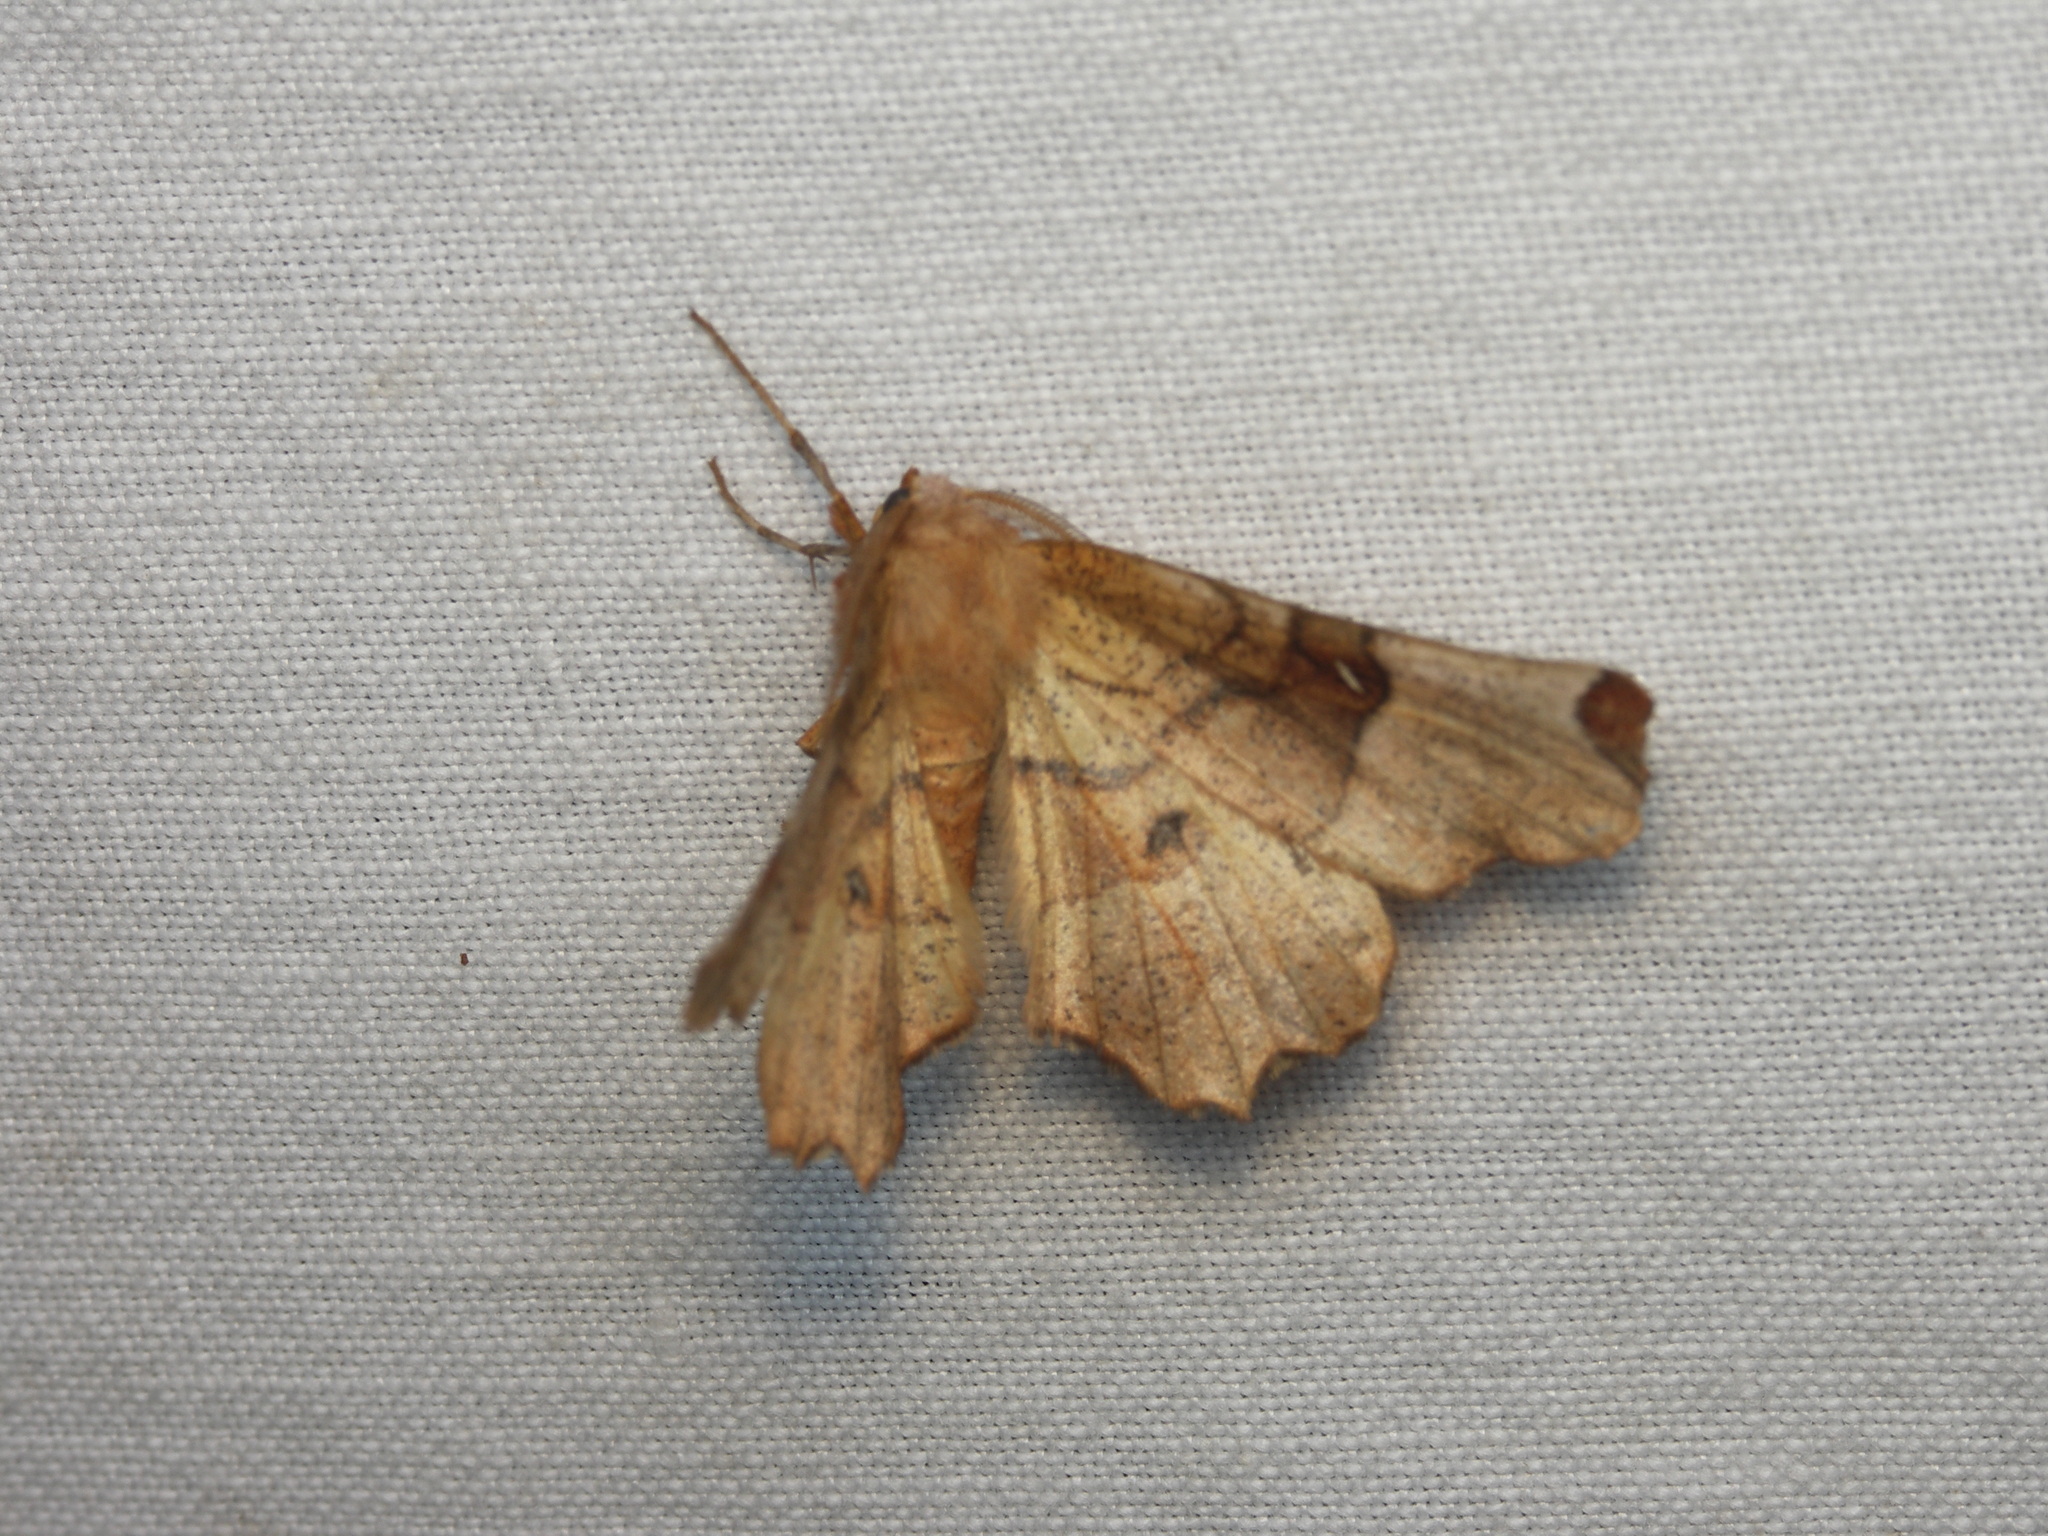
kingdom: Animalia
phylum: Arthropoda
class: Insecta
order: Lepidoptera
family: Geometridae
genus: Selenia
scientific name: Selenia lunularia
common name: Lunar thorn
